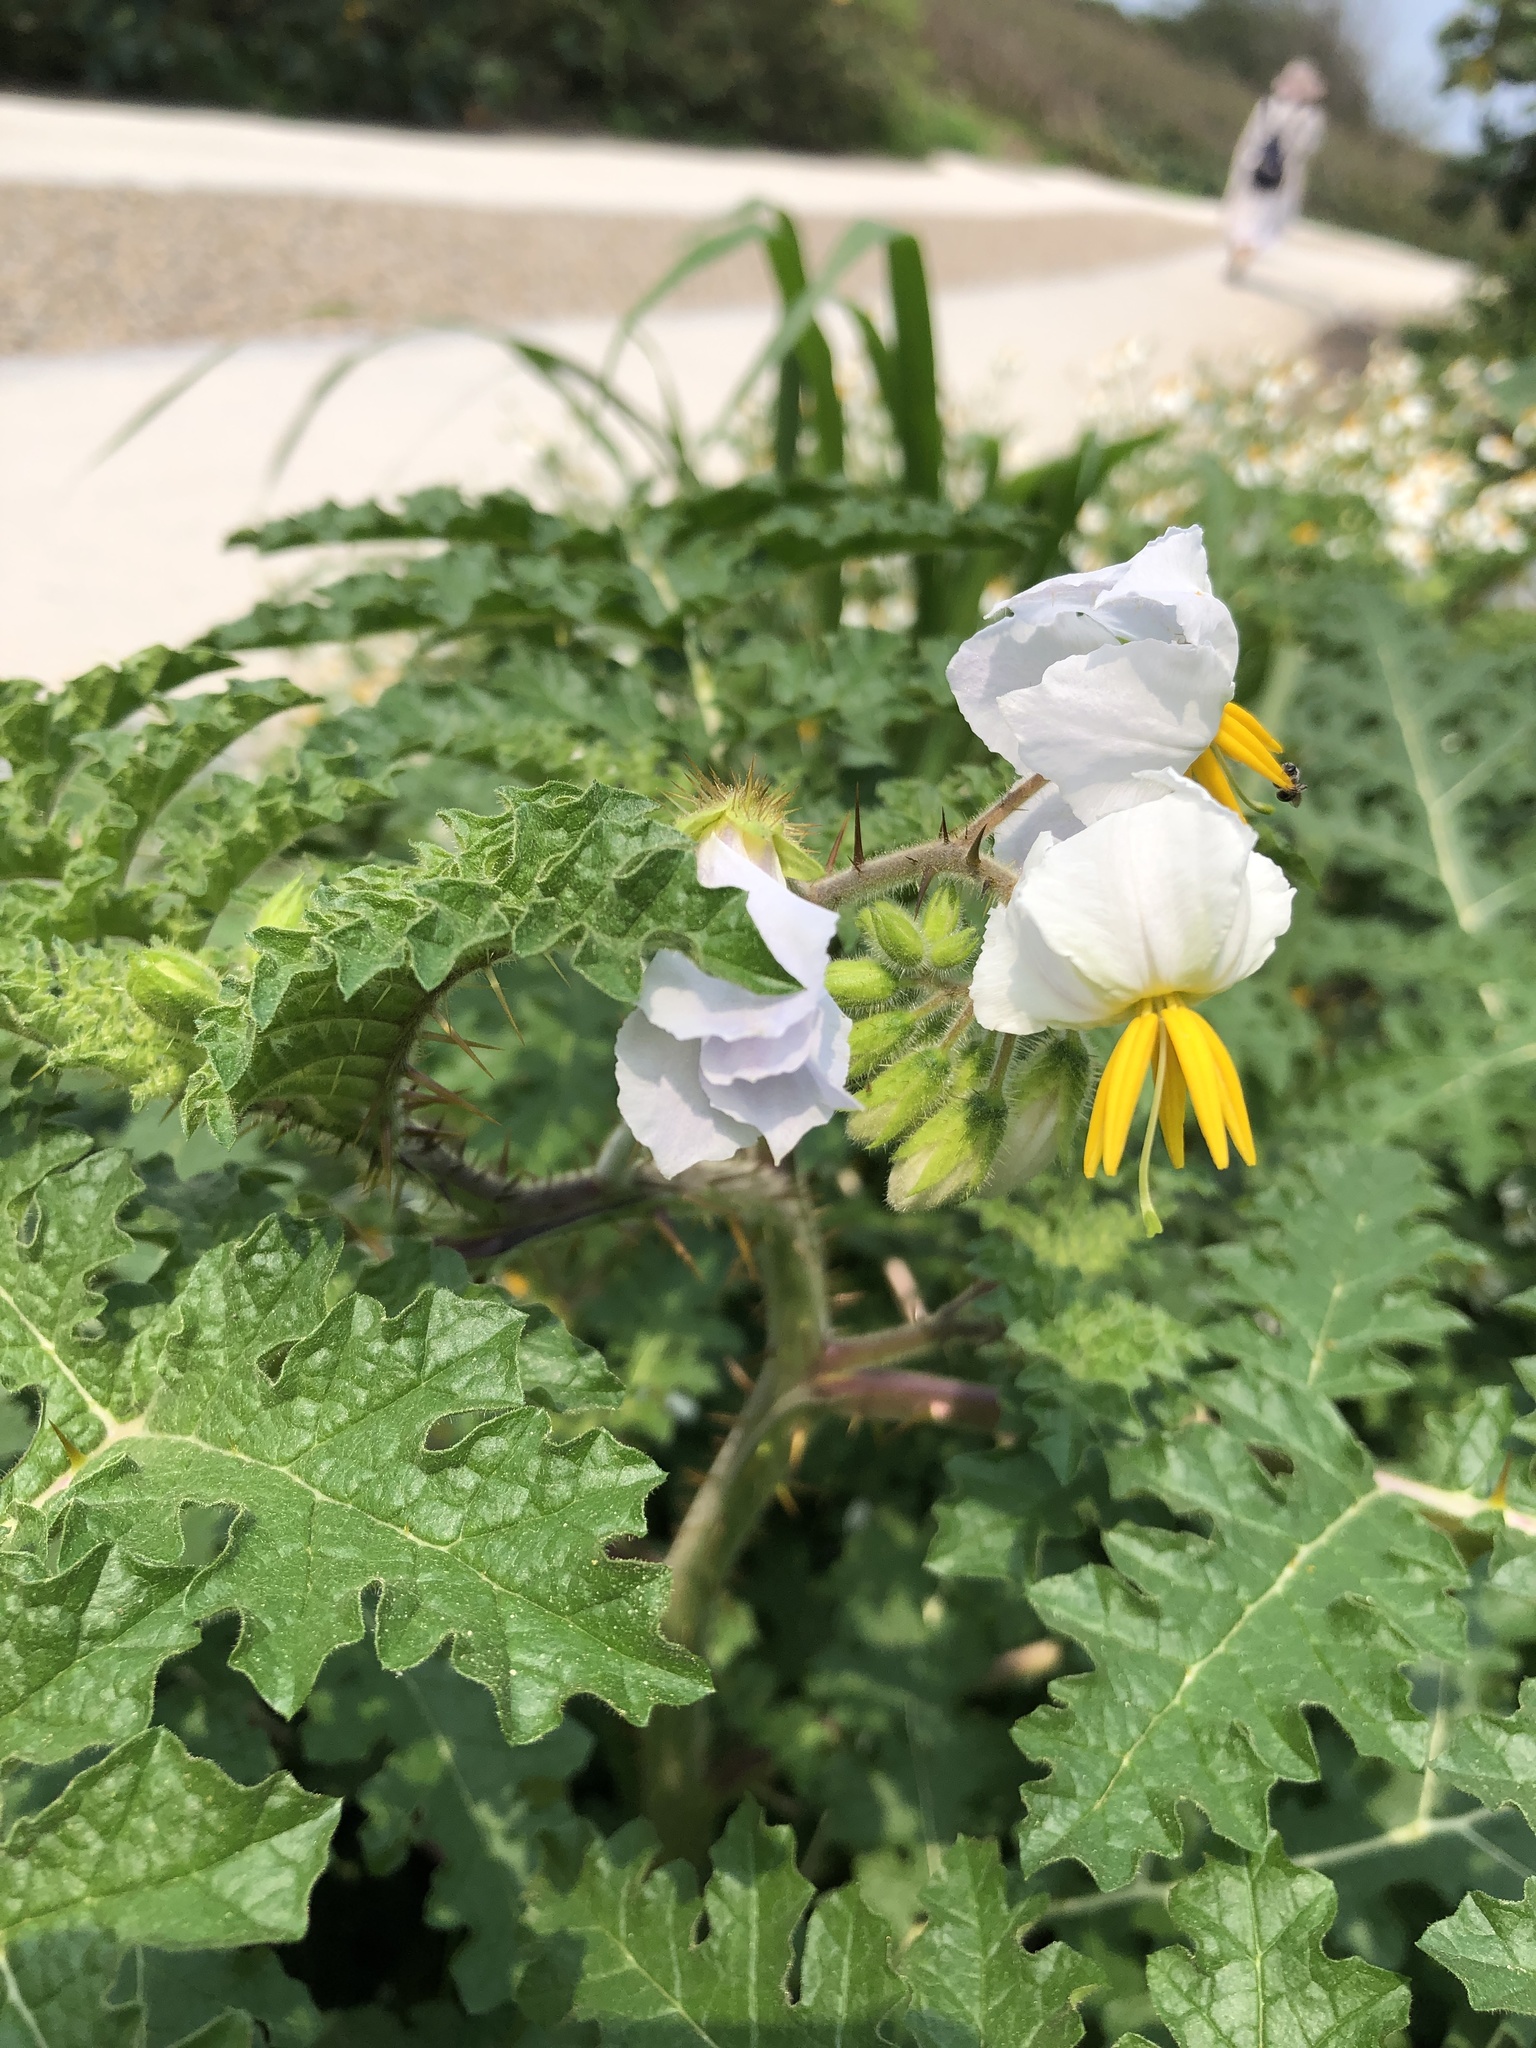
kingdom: Plantae
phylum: Tracheophyta
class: Magnoliopsida
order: Solanales
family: Solanaceae
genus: Solanum
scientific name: Solanum sisymbriifolium
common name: Red buffalo-bur
